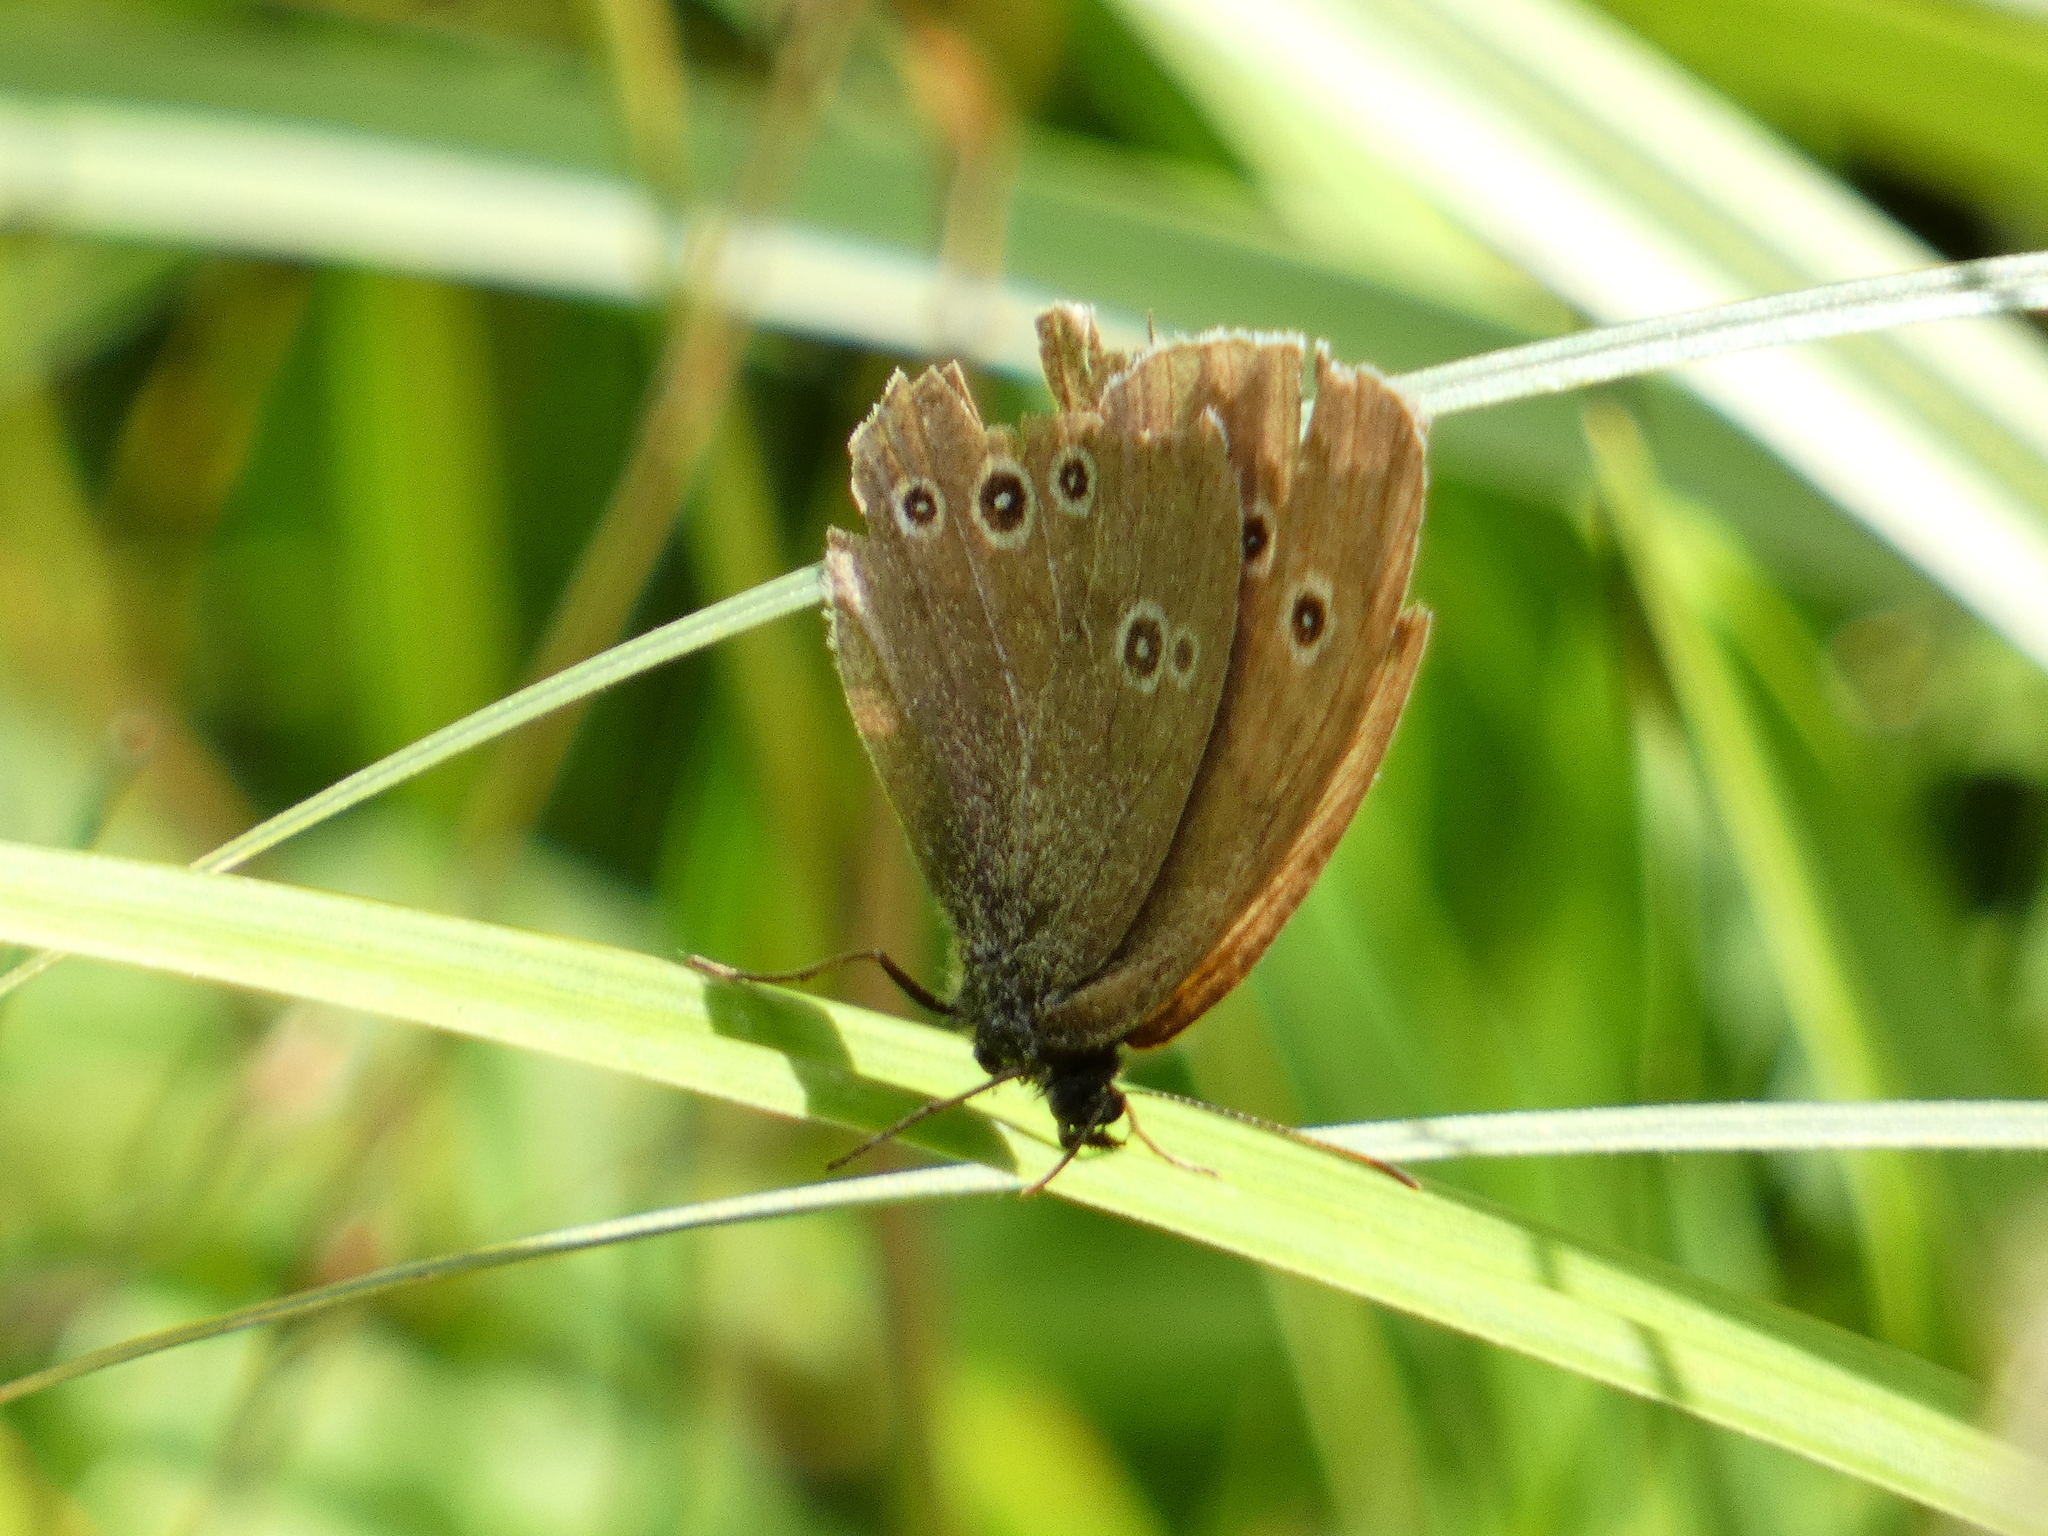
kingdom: Animalia
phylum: Arthropoda
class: Insecta
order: Lepidoptera
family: Nymphalidae
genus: Aphantopus
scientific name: Aphantopus hyperantus
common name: Ringlet
